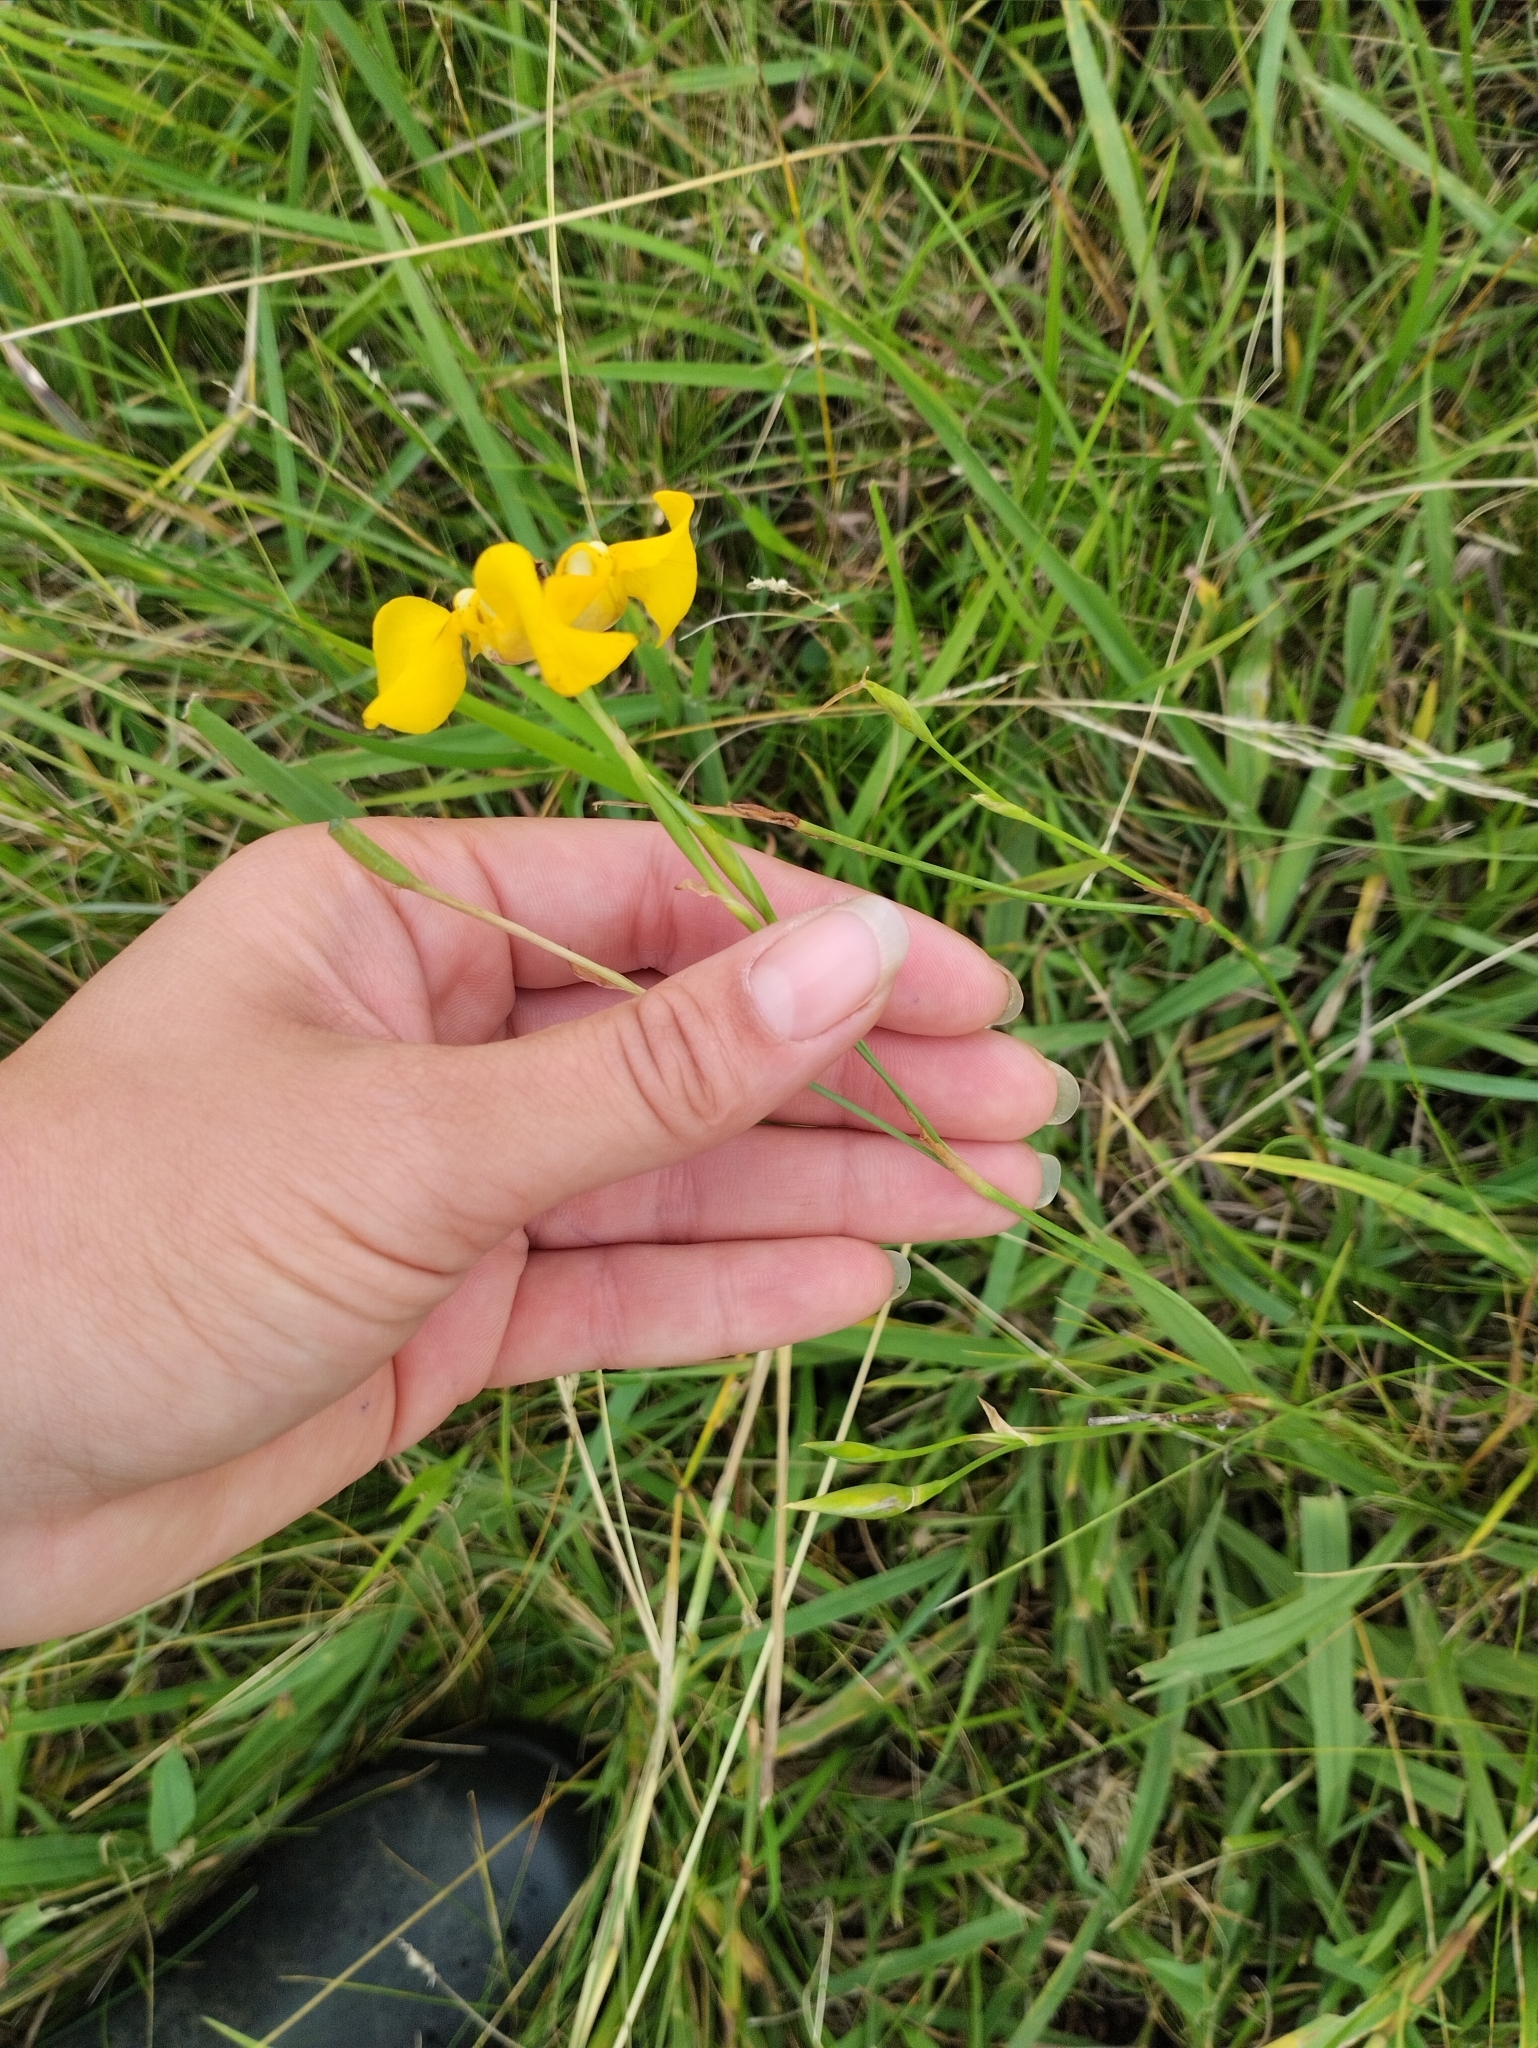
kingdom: Plantae
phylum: Tracheophyta
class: Liliopsida
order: Asparagales
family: Iridaceae
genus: Cypella
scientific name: Cypella herbertii
